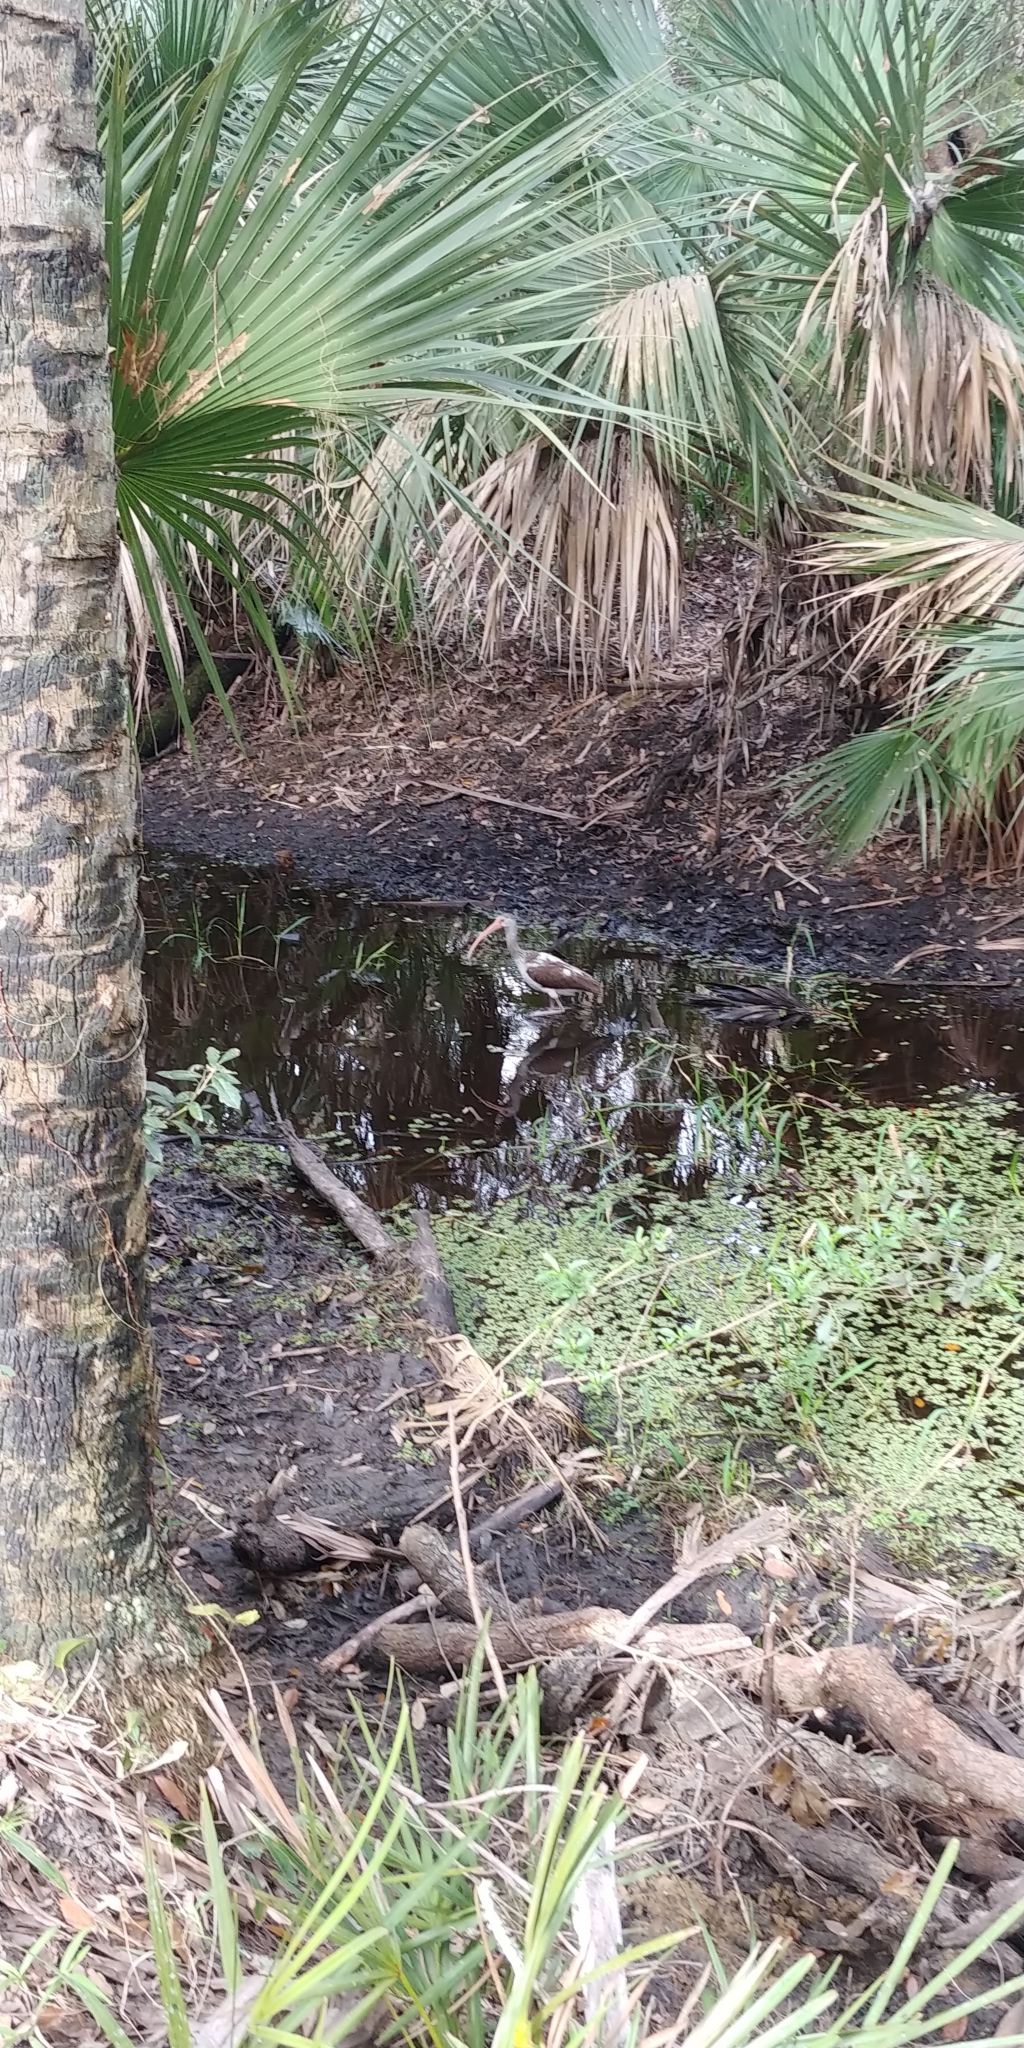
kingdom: Animalia
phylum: Chordata
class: Aves
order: Pelecaniformes
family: Threskiornithidae
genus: Eudocimus
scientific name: Eudocimus albus
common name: White ibis
